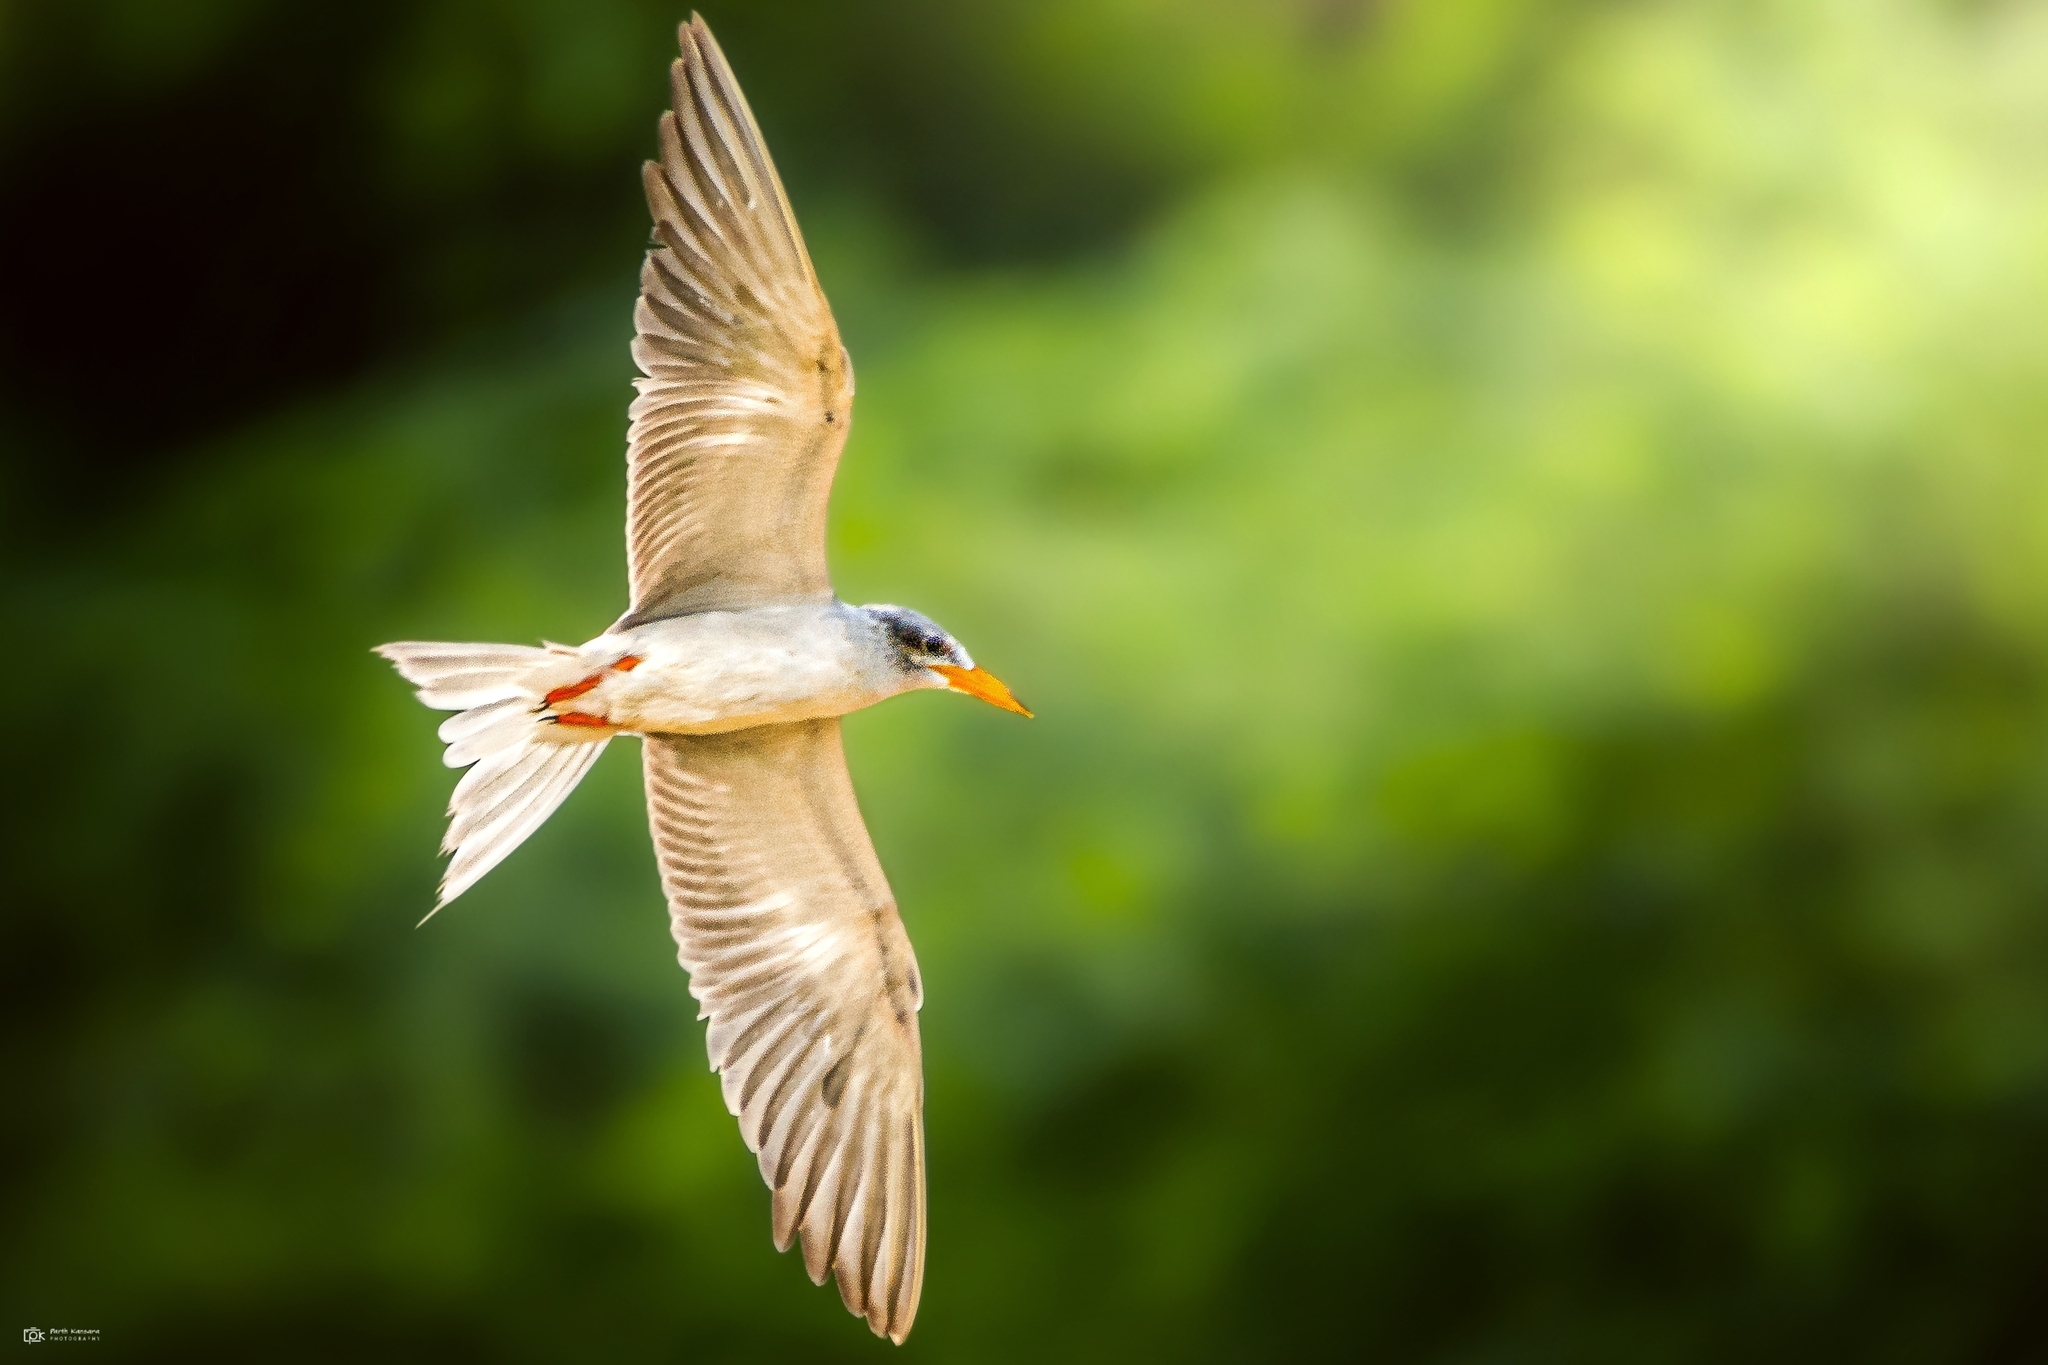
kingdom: Animalia
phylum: Chordata
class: Aves
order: Charadriiformes
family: Laridae
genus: Sterna
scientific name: Sterna aurantia
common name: River tern
